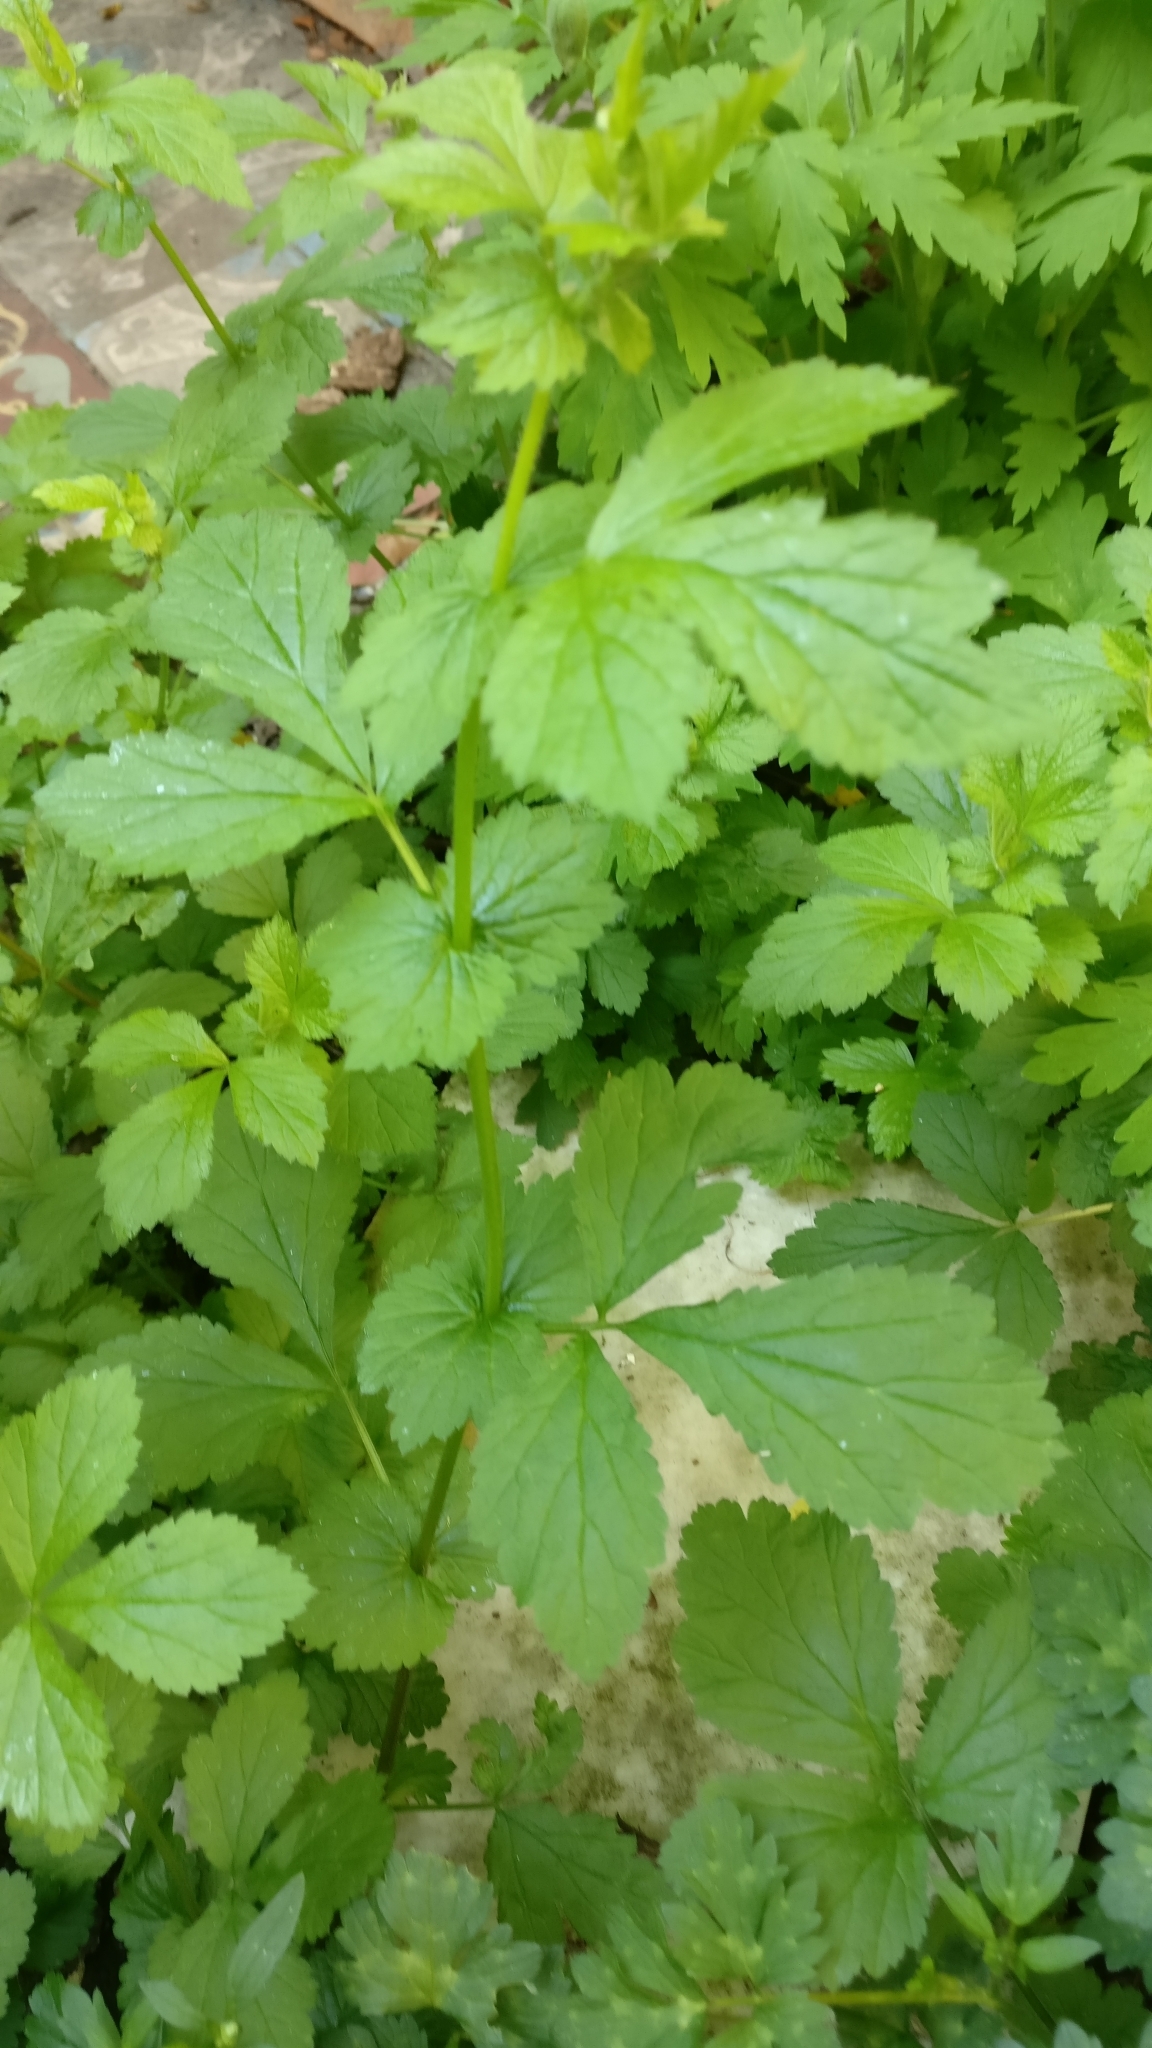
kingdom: Plantae
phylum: Tracheophyta
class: Magnoliopsida
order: Rosales
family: Rosaceae
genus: Geum
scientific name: Geum urbanum
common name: Wood avens
